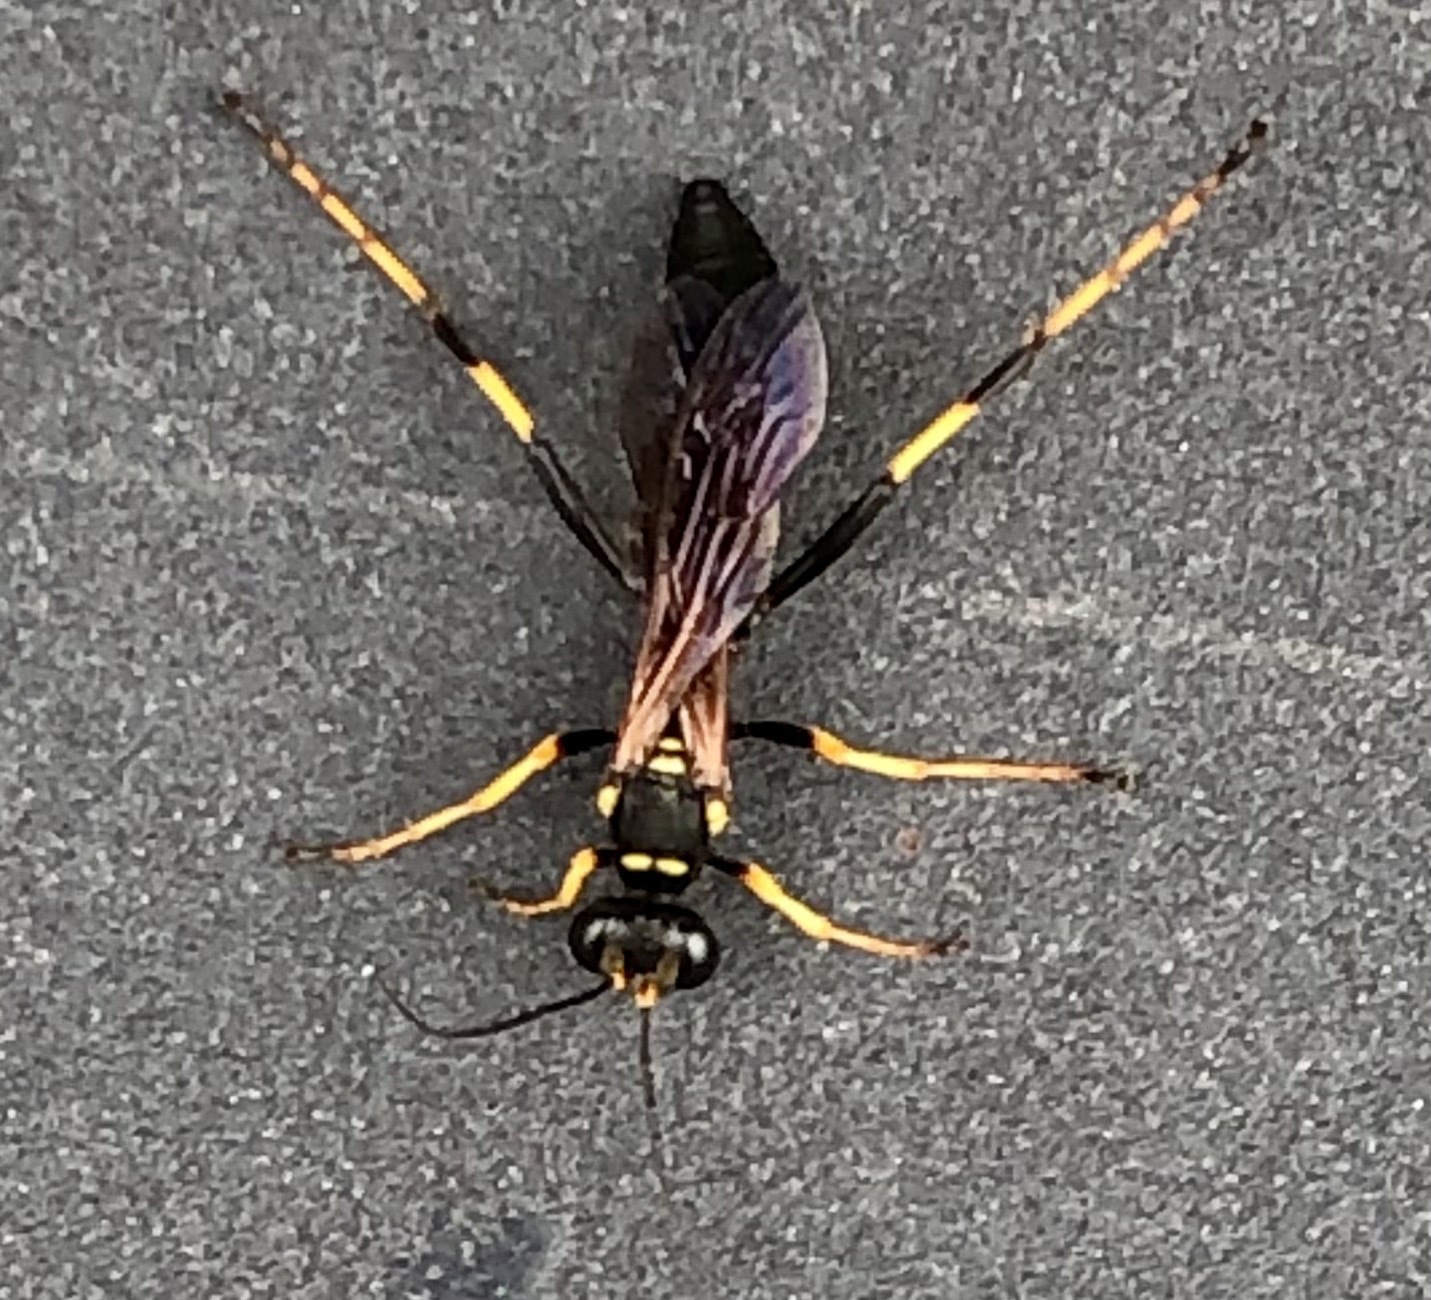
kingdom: Animalia
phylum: Arthropoda
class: Insecta
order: Hymenoptera
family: Sphecidae
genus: Sceliphron
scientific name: Sceliphron caementarium
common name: Mud dauber
